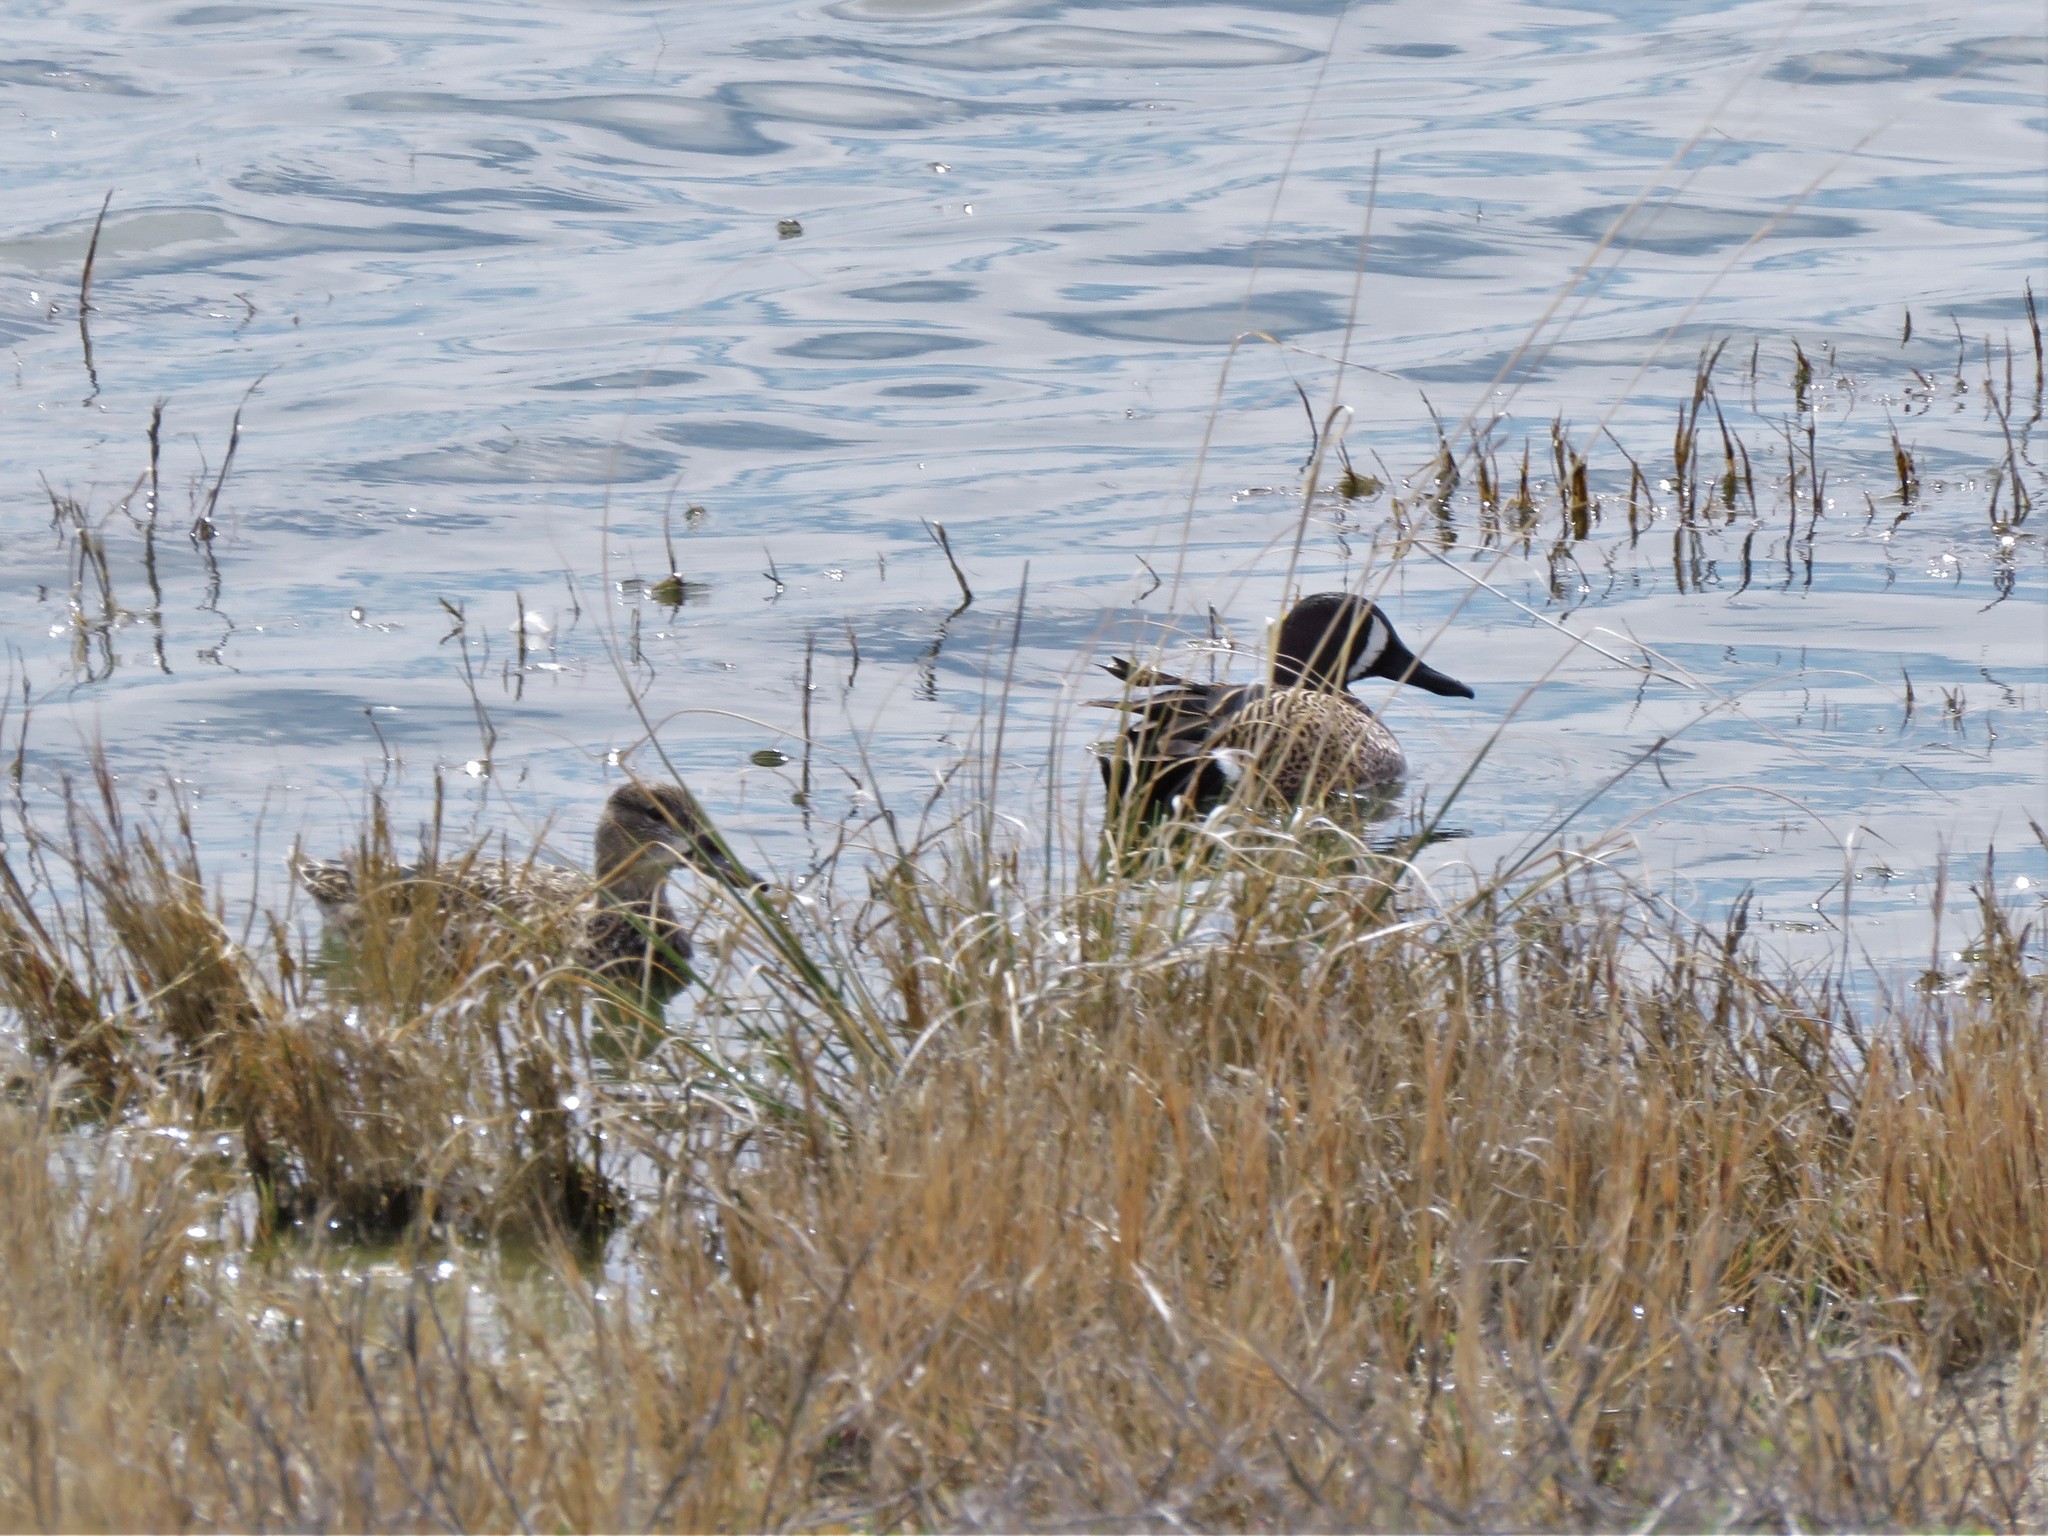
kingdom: Animalia
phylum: Chordata
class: Aves
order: Anseriformes
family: Anatidae
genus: Spatula
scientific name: Spatula discors
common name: Blue-winged teal
